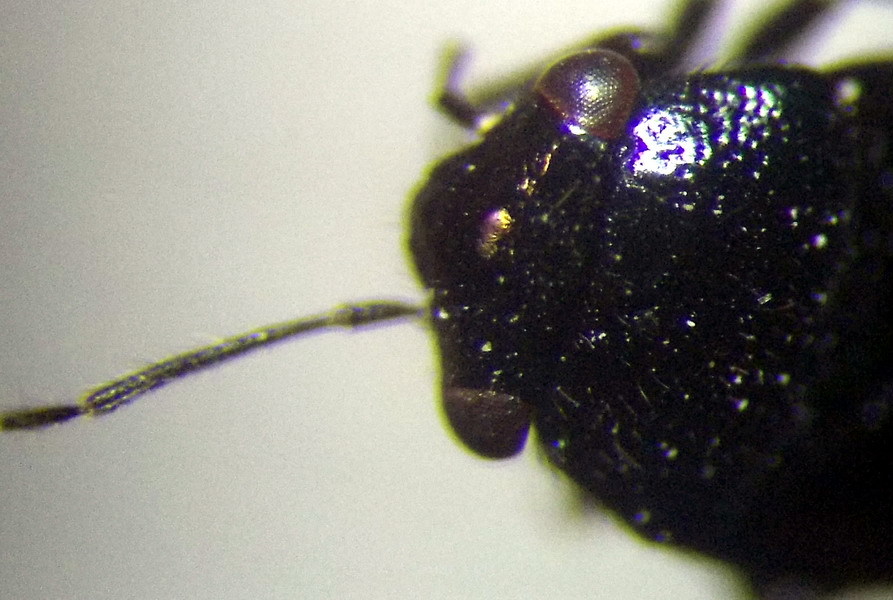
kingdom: Animalia
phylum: Arthropoda
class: Insecta
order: Hemiptera
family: Miridae
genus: Strongylocoris
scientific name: Strongylocoris niger
